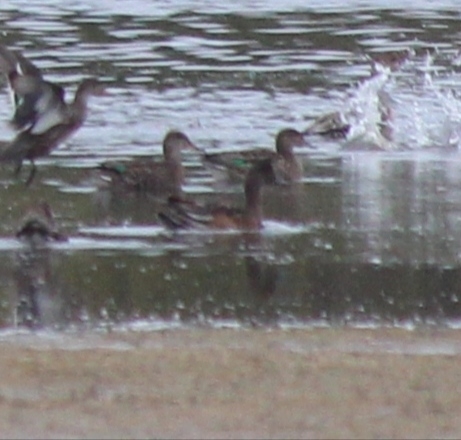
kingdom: Animalia
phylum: Chordata
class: Aves
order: Anseriformes
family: Anatidae
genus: Mareca
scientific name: Mareca penelope
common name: Eurasian wigeon
